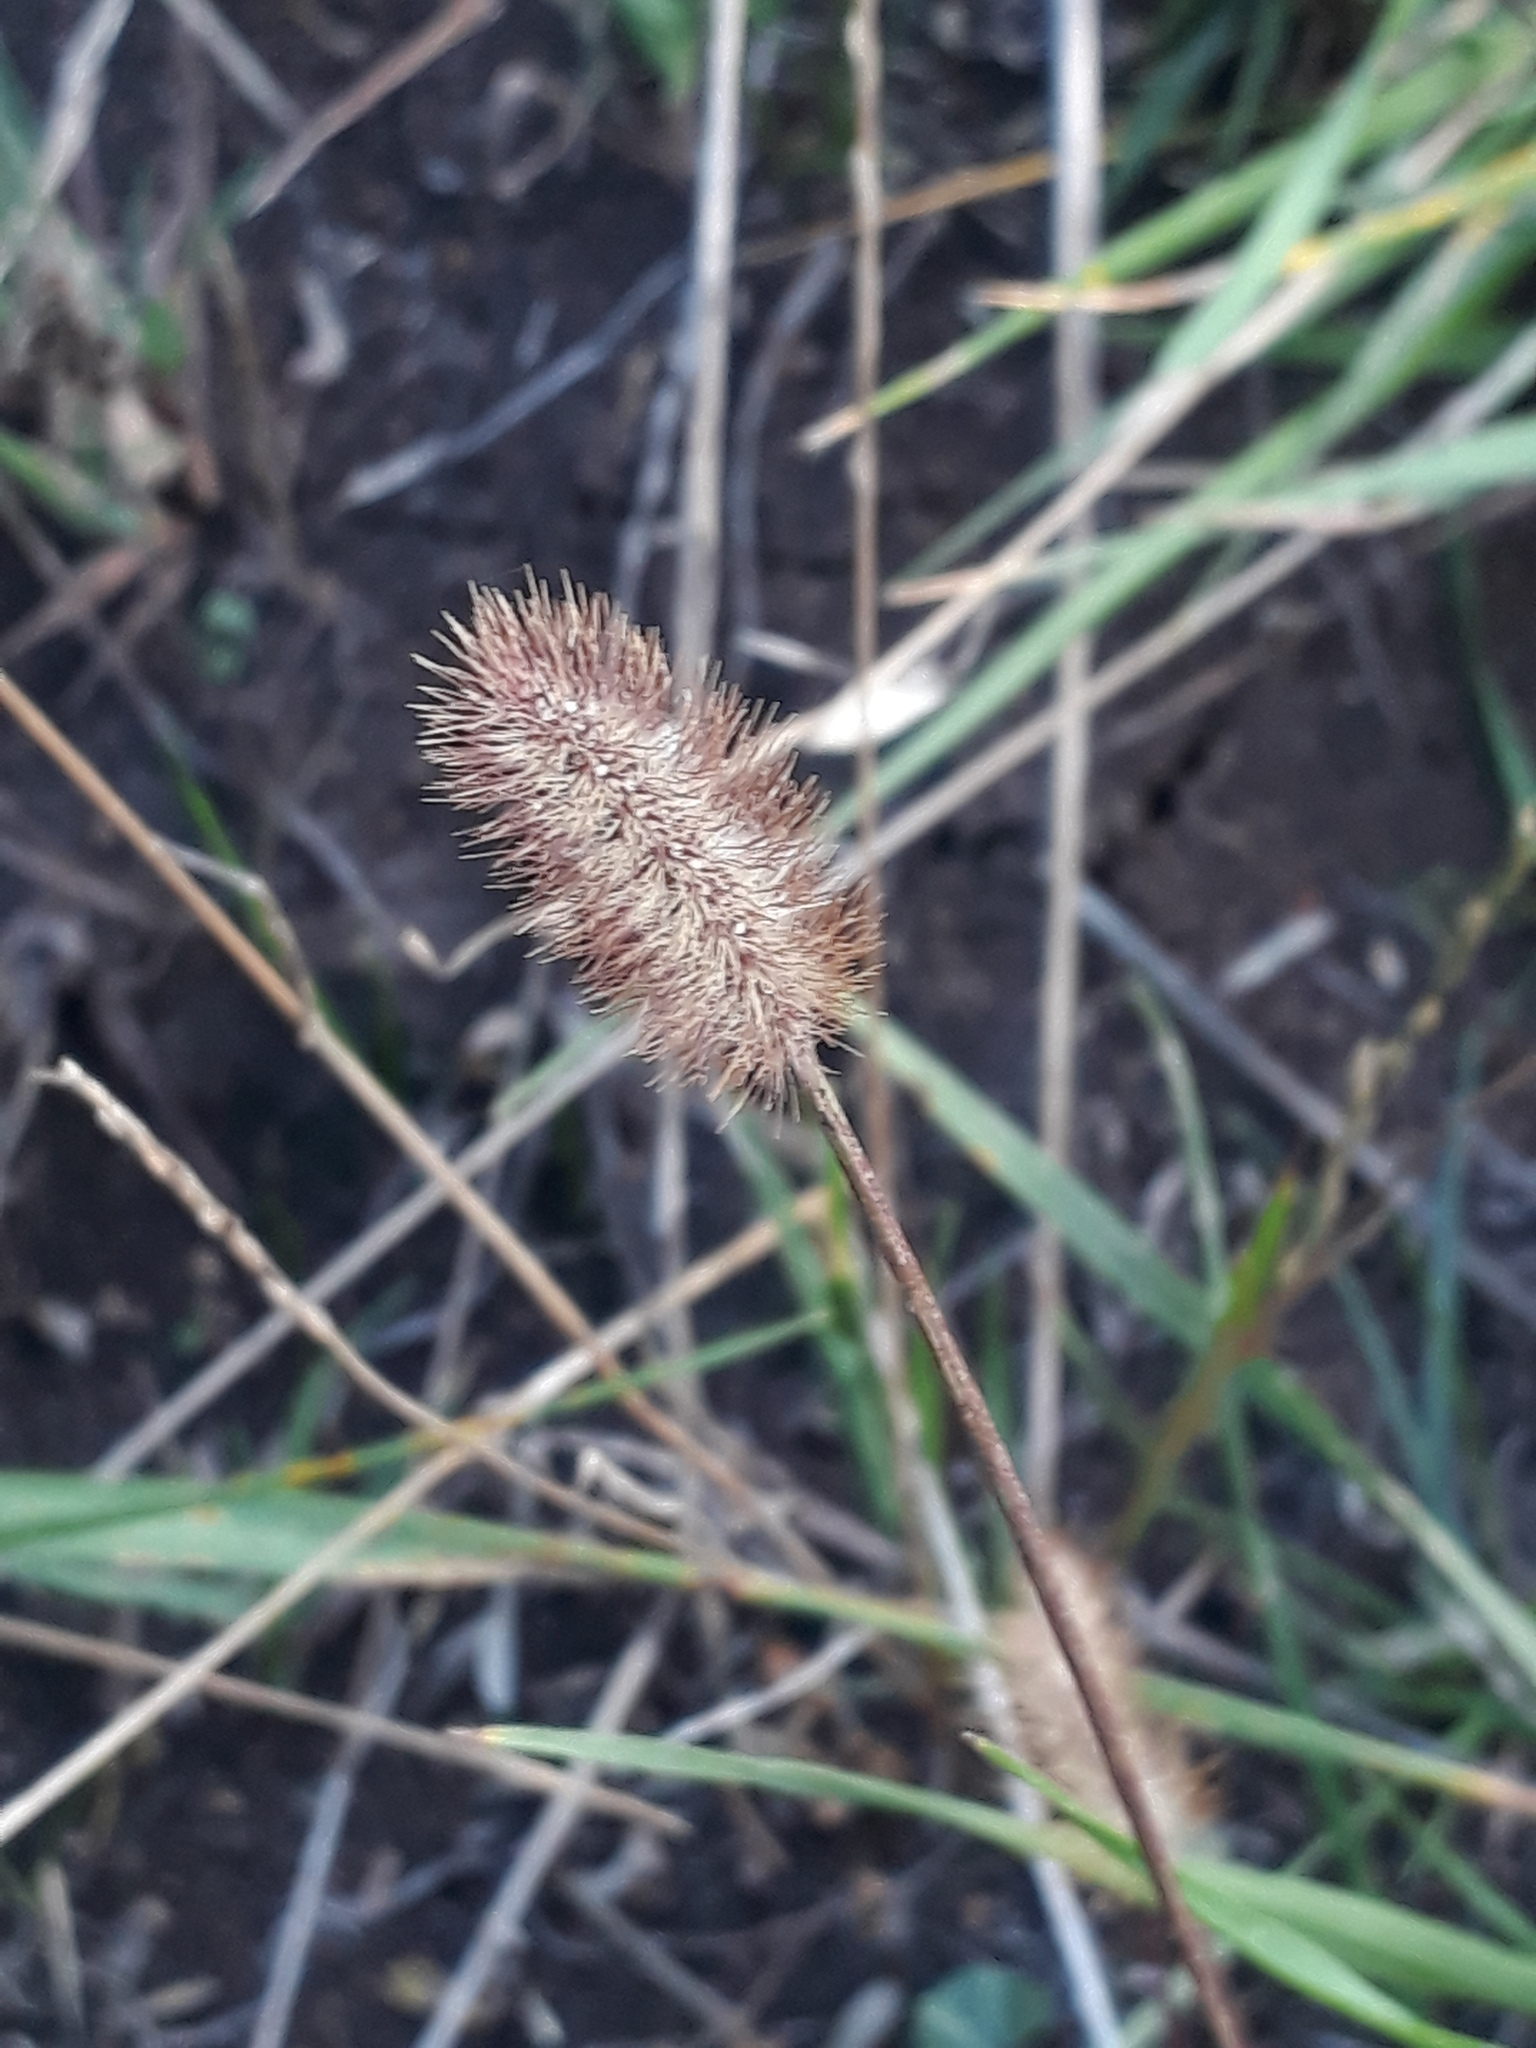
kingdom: Plantae
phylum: Tracheophyta
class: Liliopsida
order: Poales
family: Poaceae
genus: Setaria
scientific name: Setaria pumila
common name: Yellow bristle-grass
